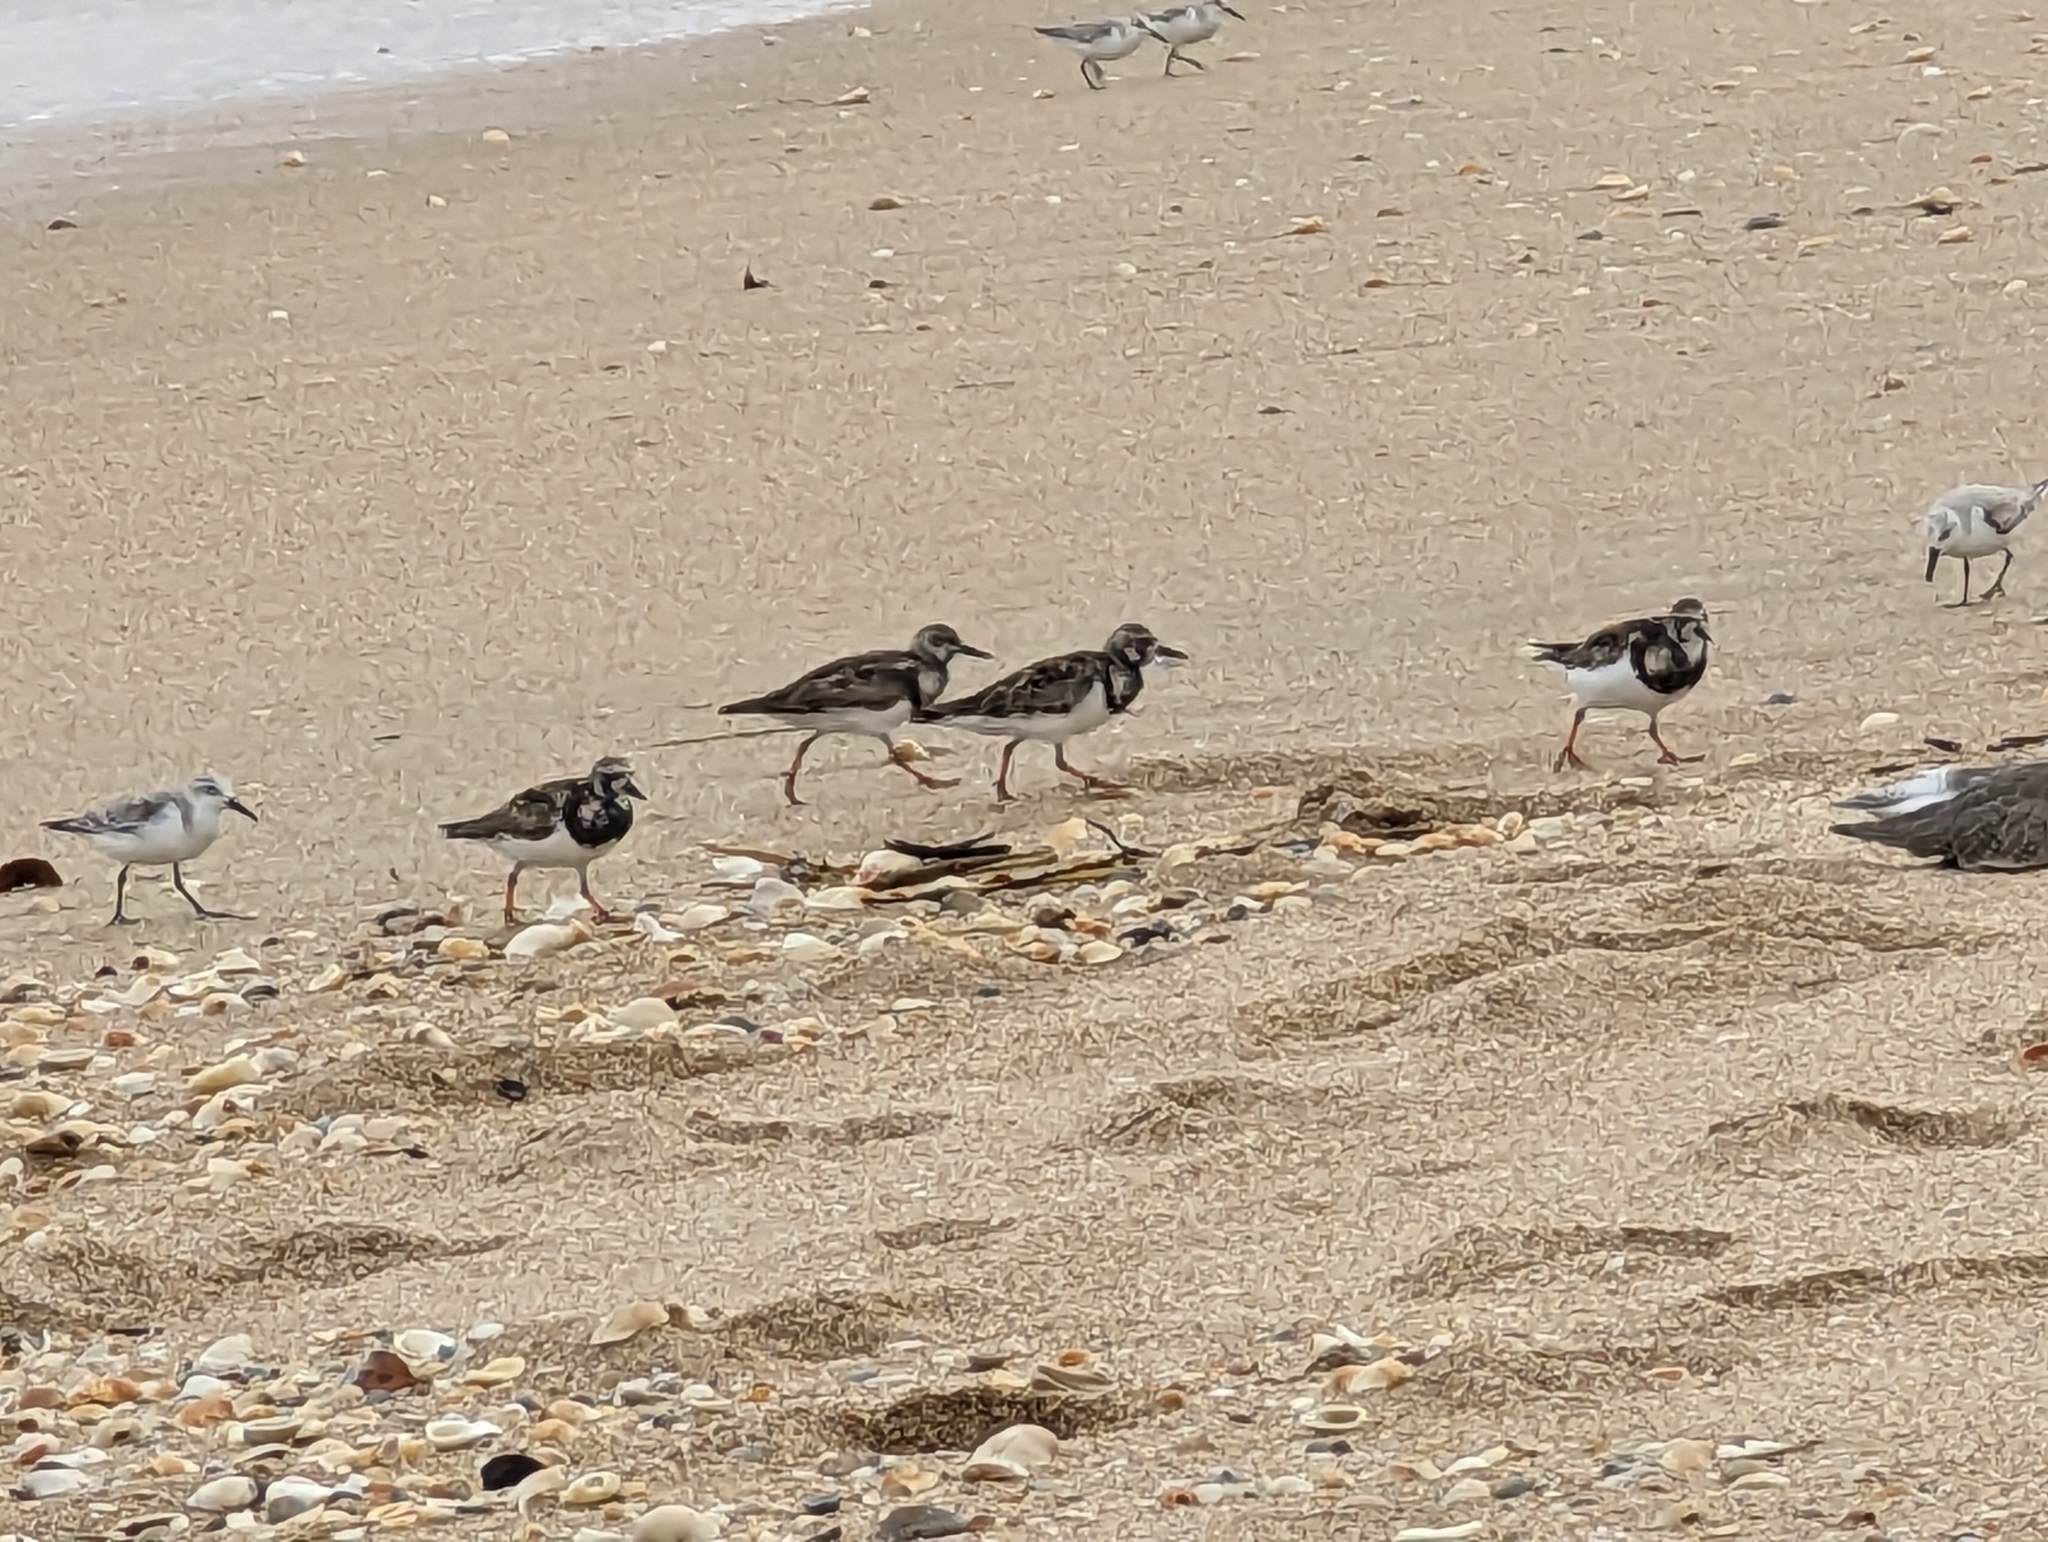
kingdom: Animalia
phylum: Chordata
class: Aves
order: Charadriiformes
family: Scolopacidae
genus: Arenaria
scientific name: Arenaria interpres
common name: Ruddy turnstone
